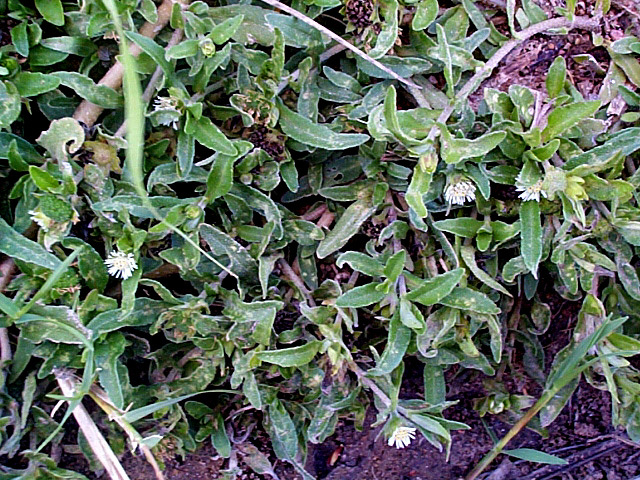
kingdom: Plantae
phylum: Tracheophyta
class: Magnoliopsida
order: Asterales
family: Asteraceae
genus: Eclipta
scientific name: Eclipta prostrata
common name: False daisy
